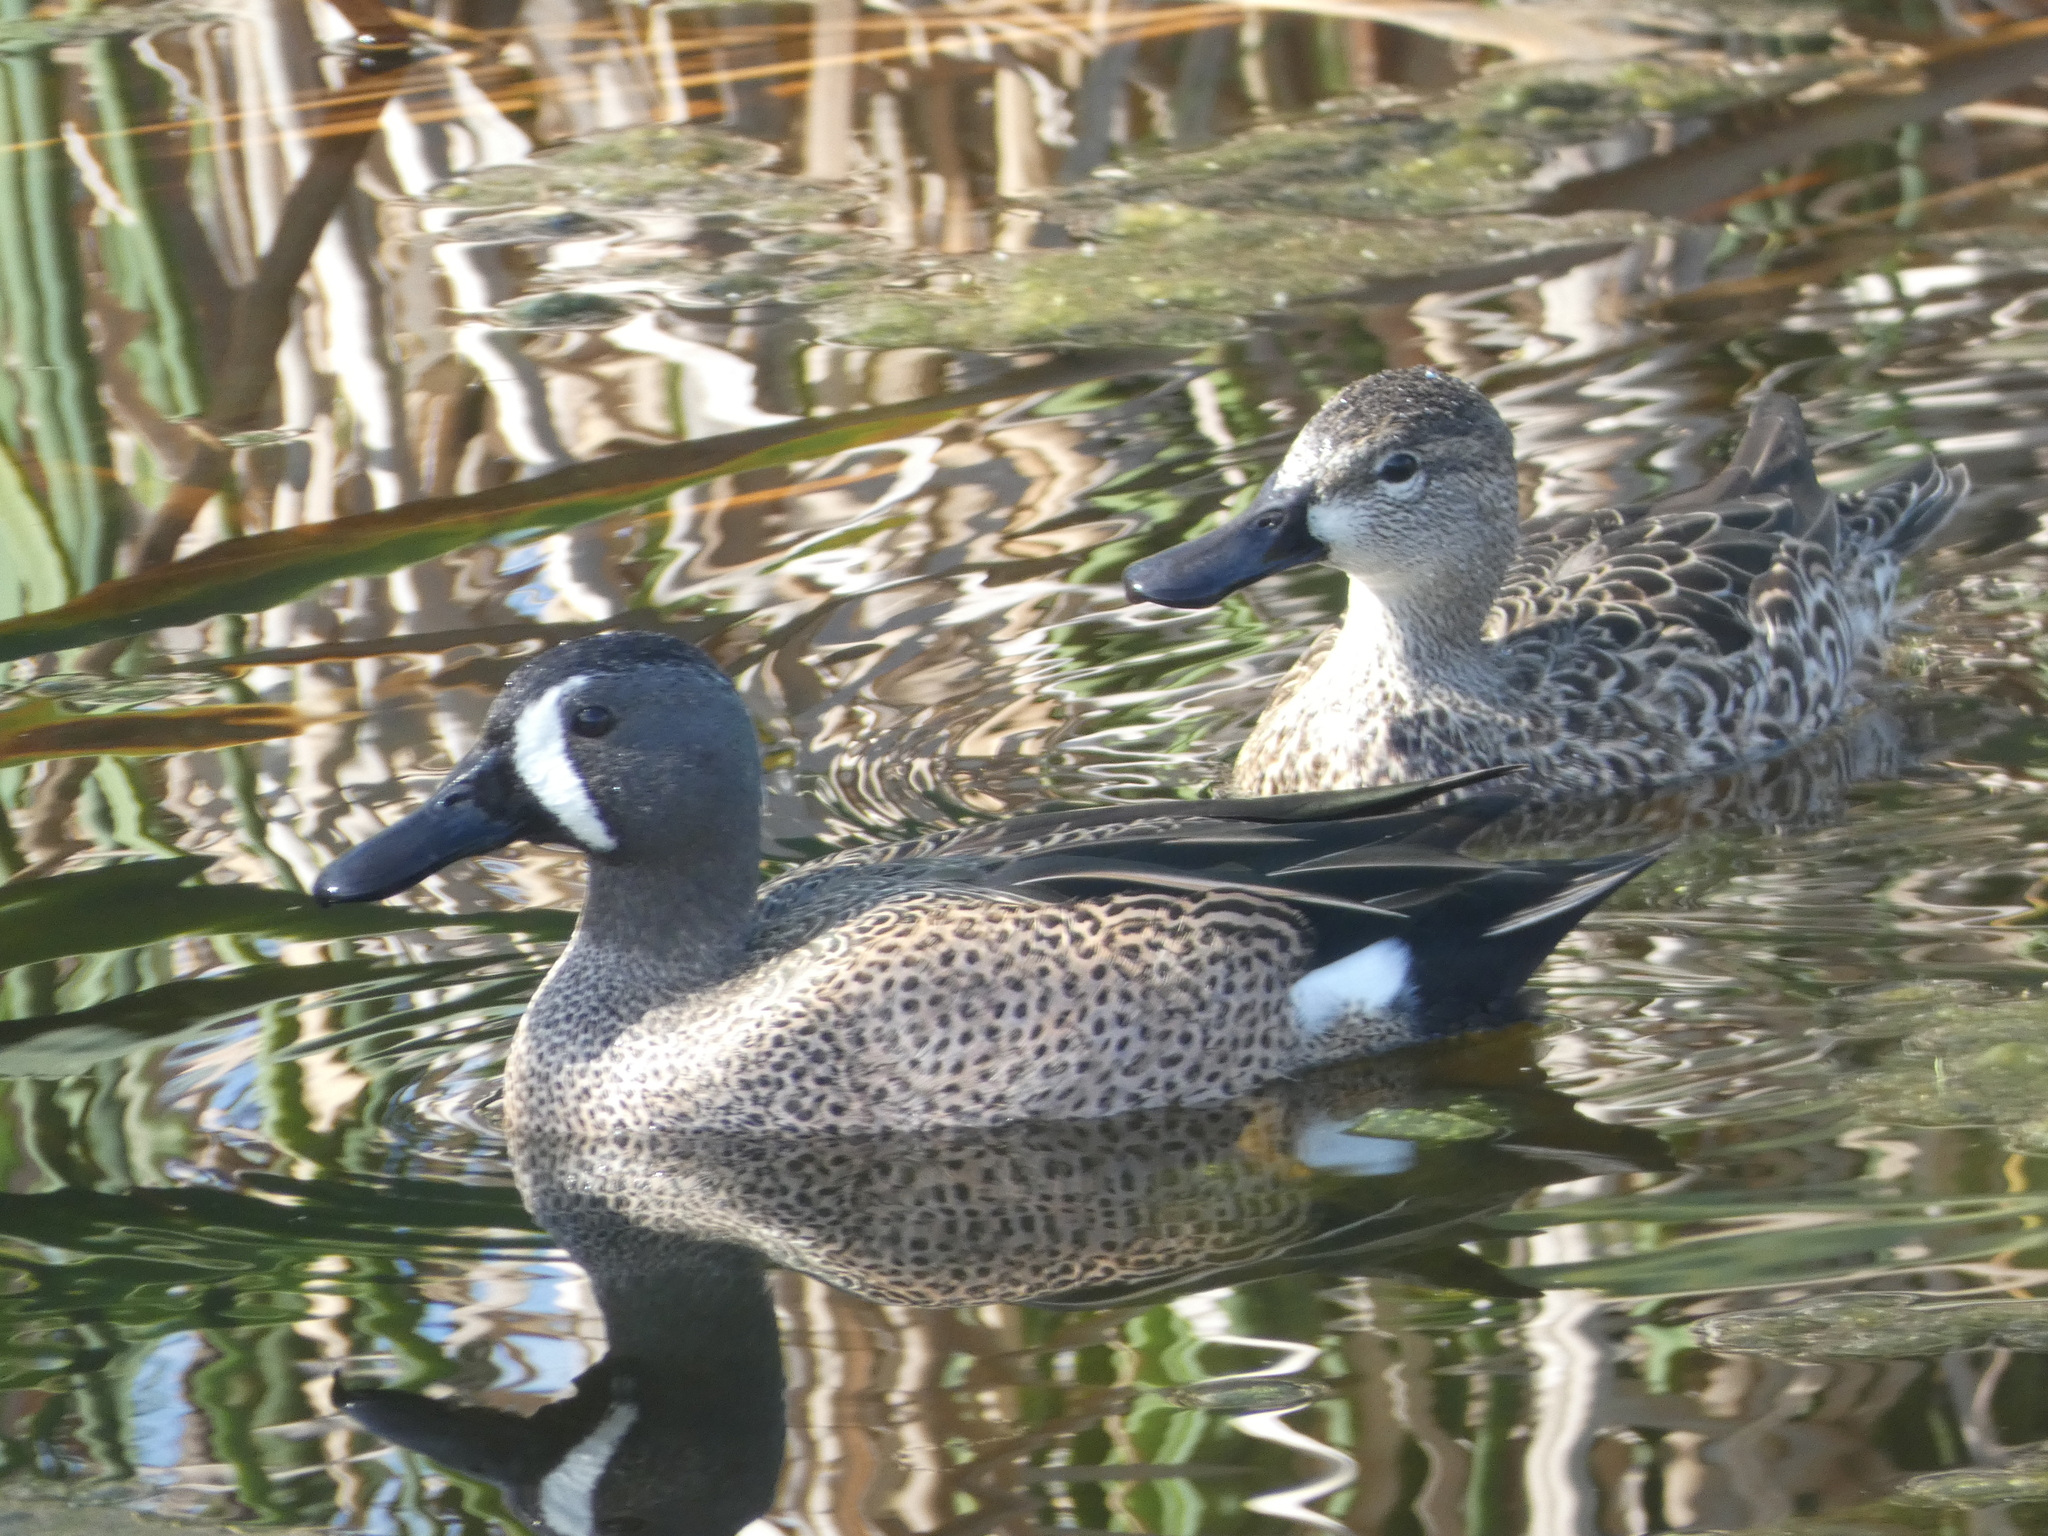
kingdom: Animalia
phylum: Chordata
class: Aves
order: Anseriformes
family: Anatidae
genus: Spatula
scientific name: Spatula discors
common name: Blue-winged teal
